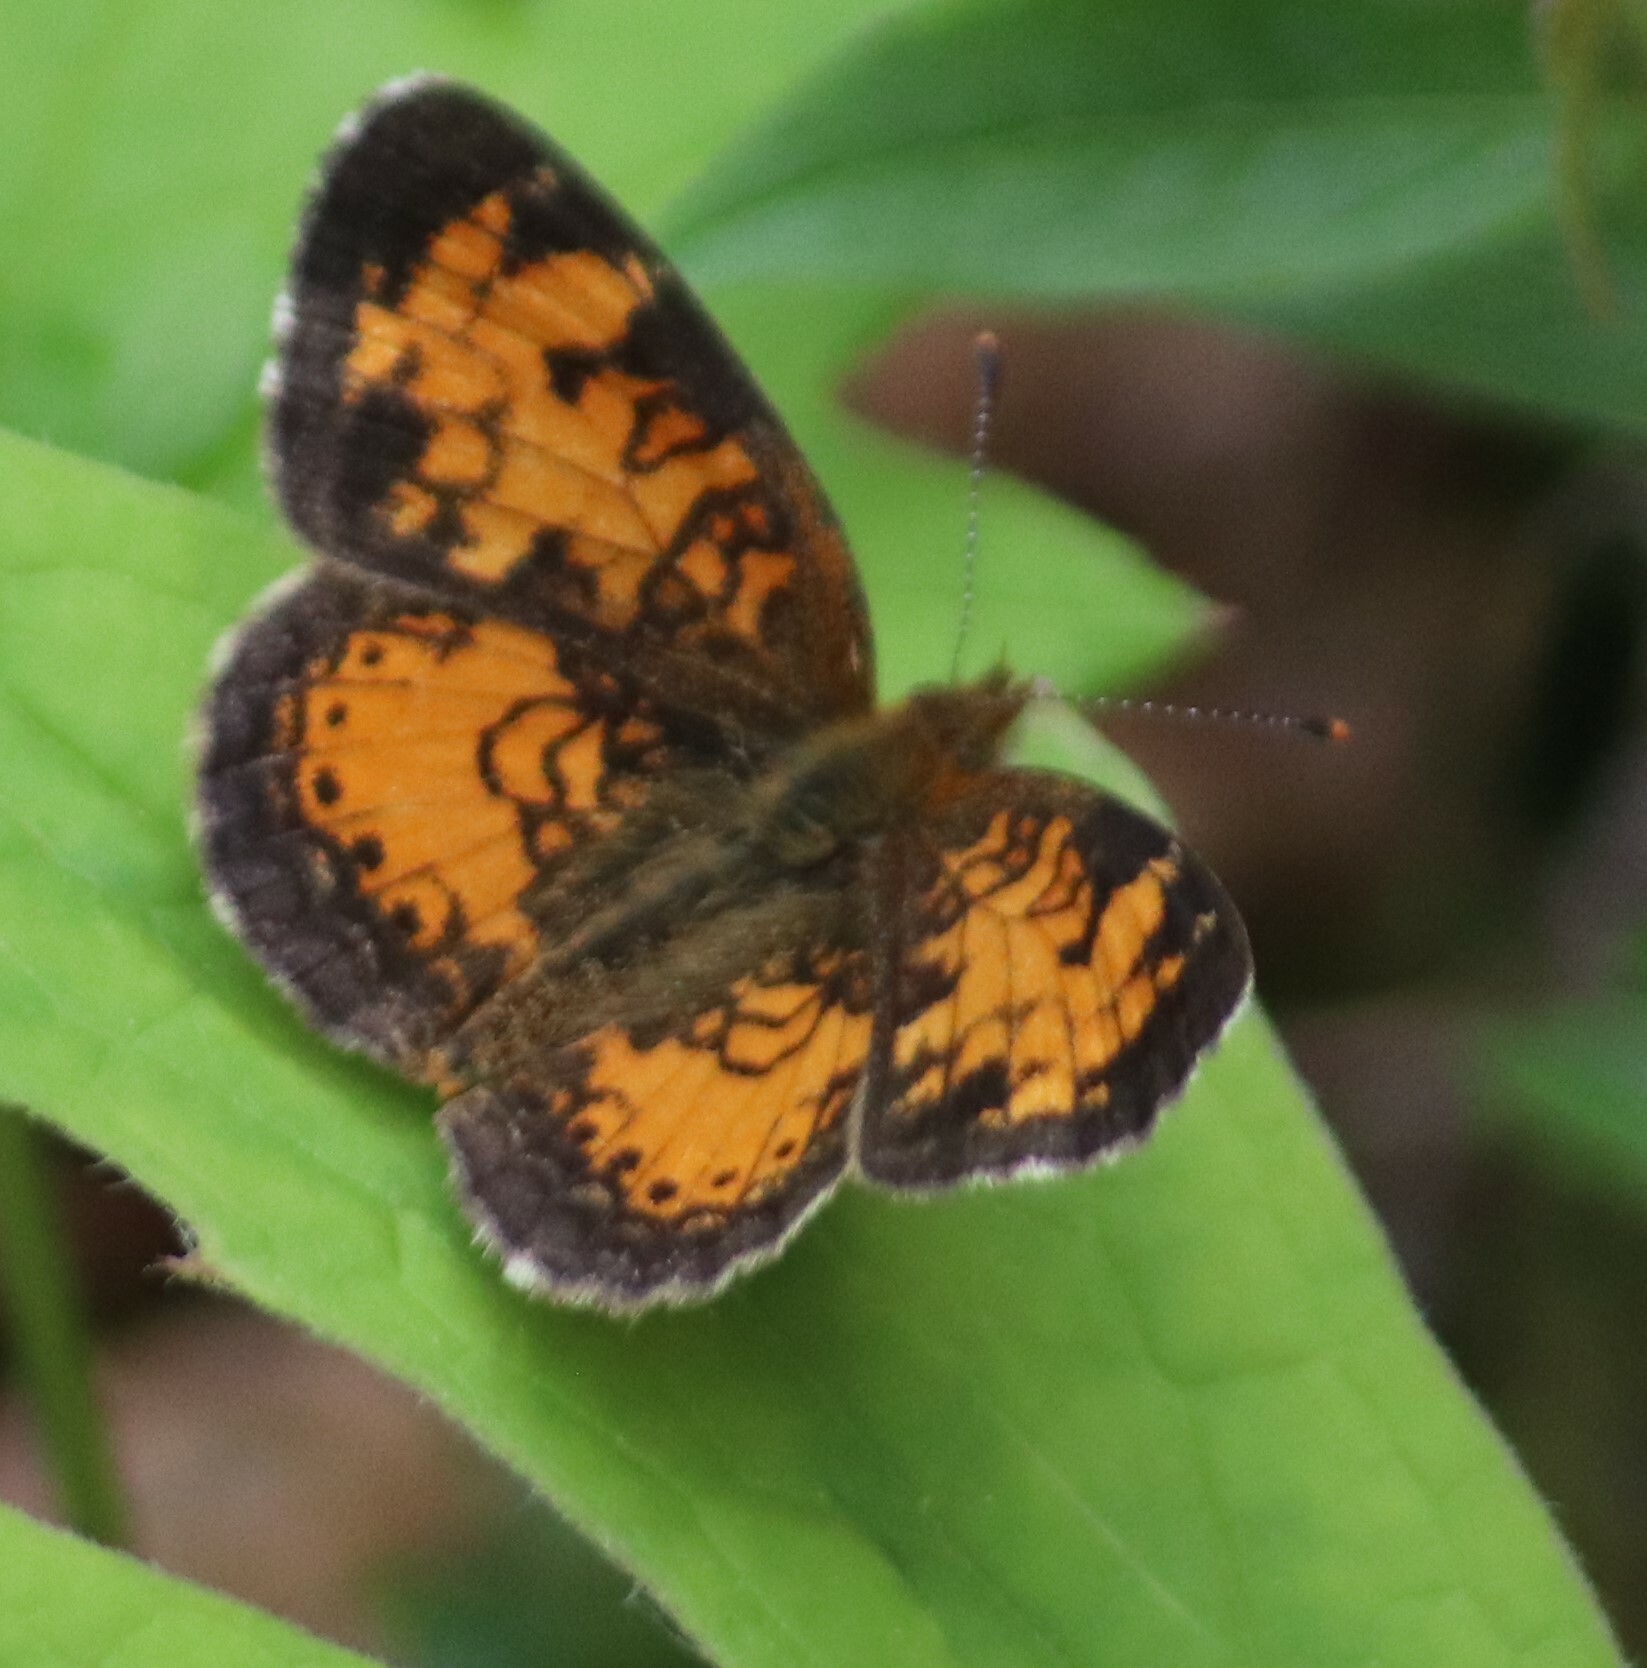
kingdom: Animalia
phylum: Arthropoda
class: Insecta
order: Lepidoptera
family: Nymphalidae
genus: Phyciodes
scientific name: Phyciodes tharos
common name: Pearl crescent
